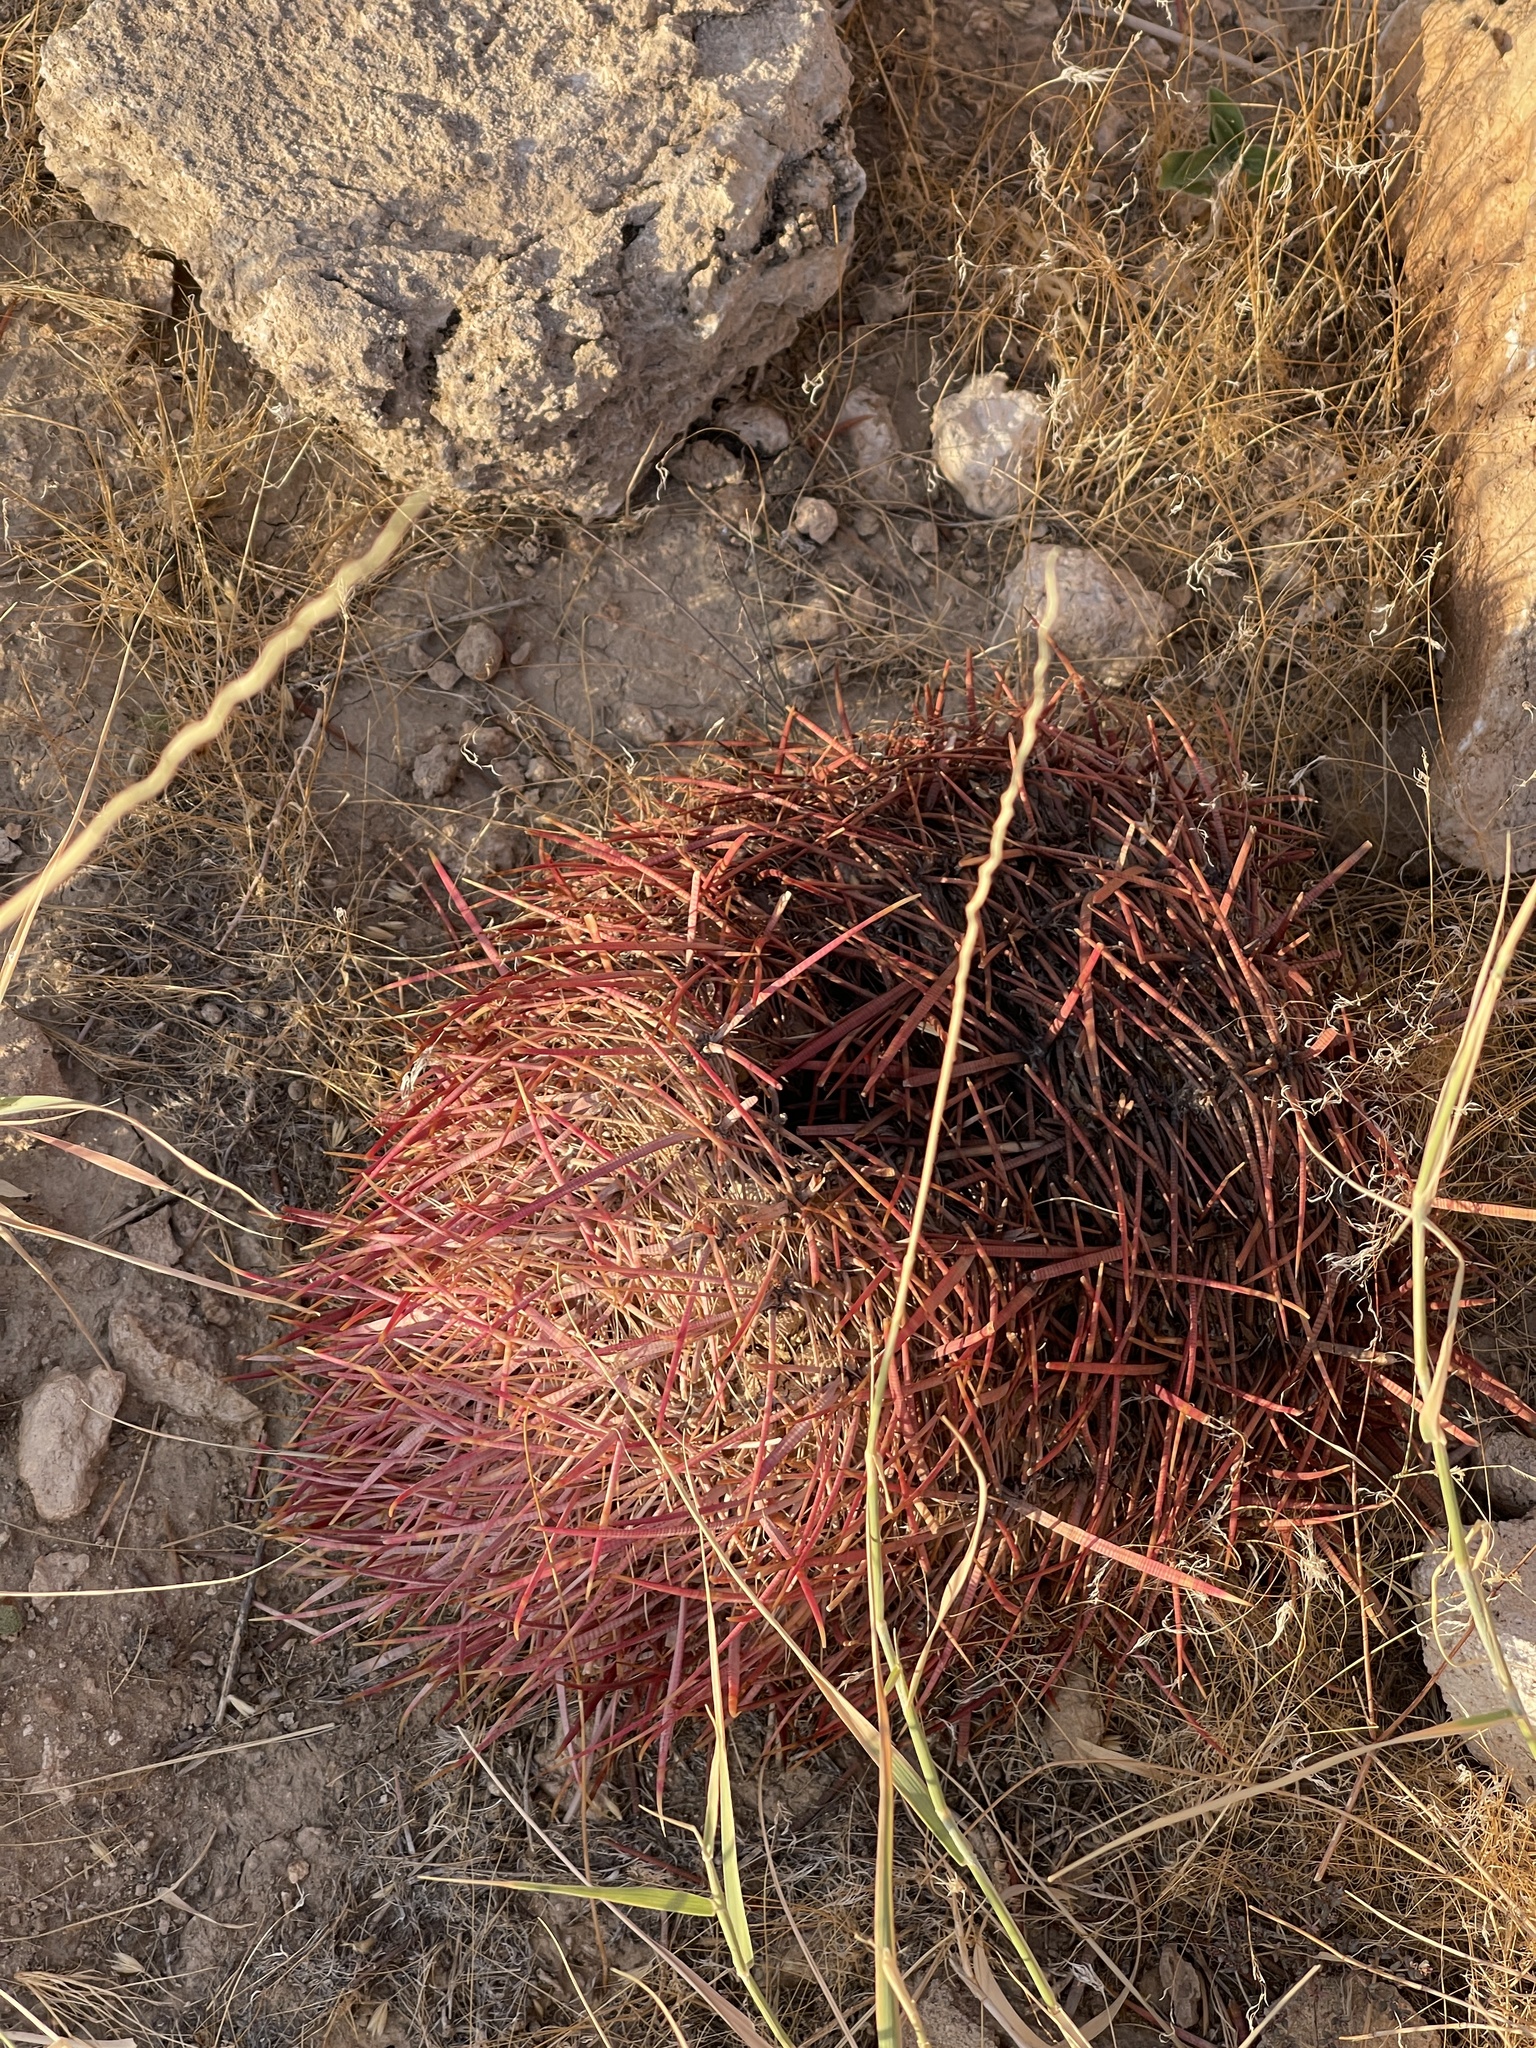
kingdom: Plantae
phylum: Tracheophyta
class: Magnoliopsida
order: Caryophyllales
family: Cactaceae
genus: Ferocactus
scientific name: Ferocactus cylindraceus
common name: California barrel cactus
